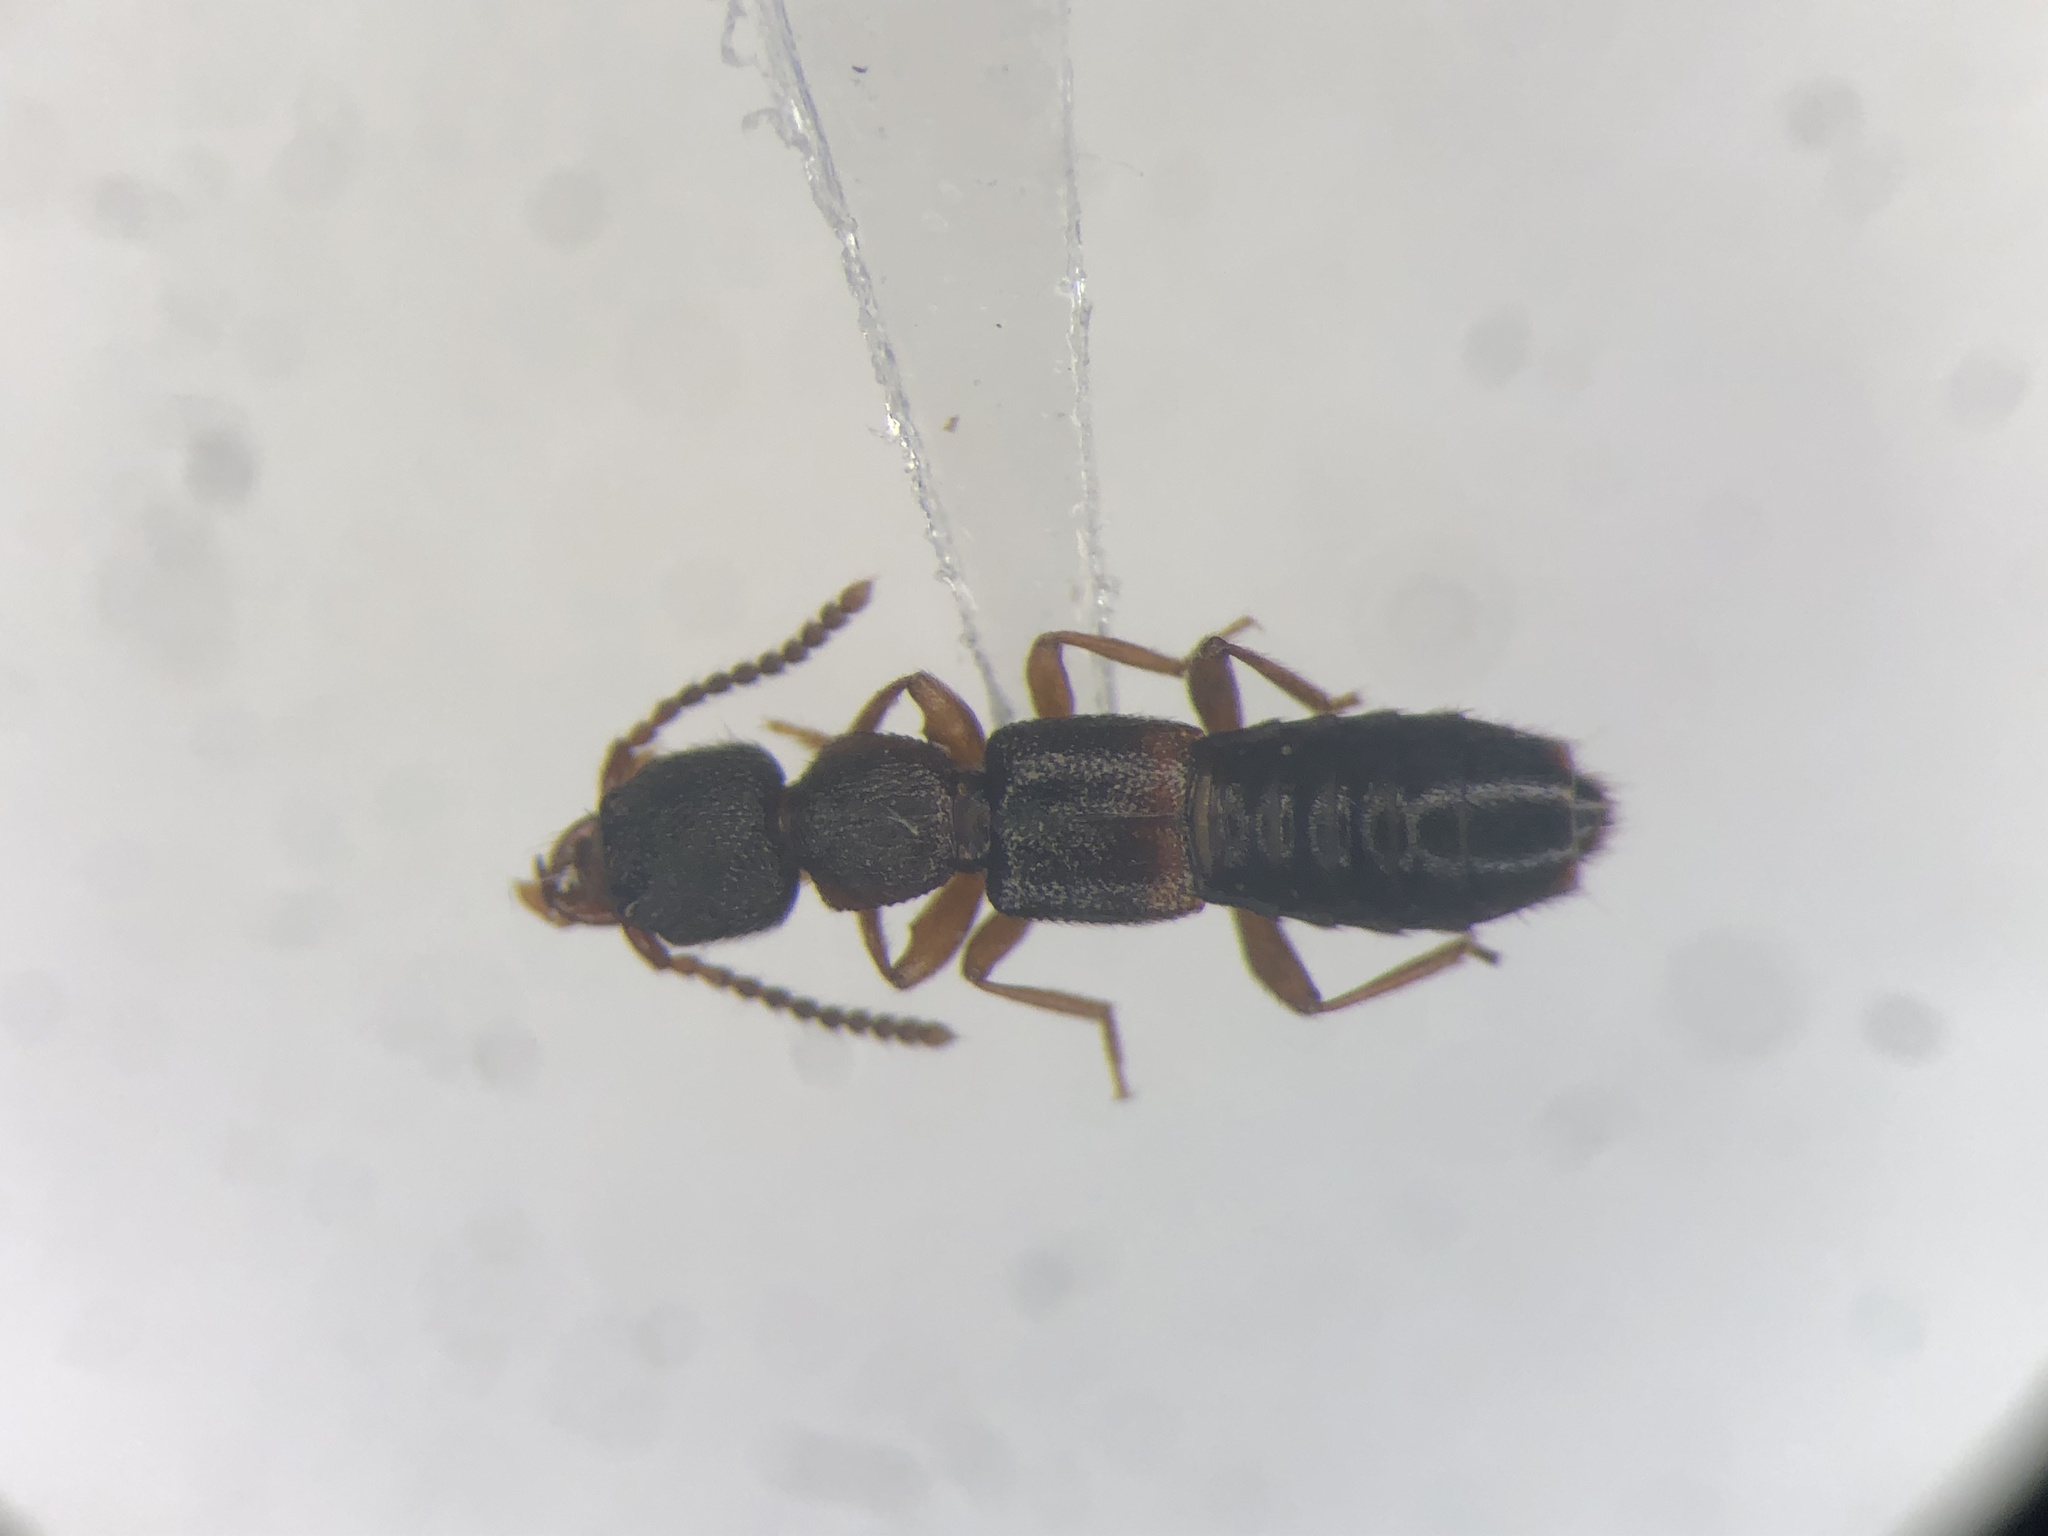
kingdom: Animalia
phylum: Arthropoda
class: Insecta
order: Coleoptera
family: Staphylinidae
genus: Sunius
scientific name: Sunius confluentus
